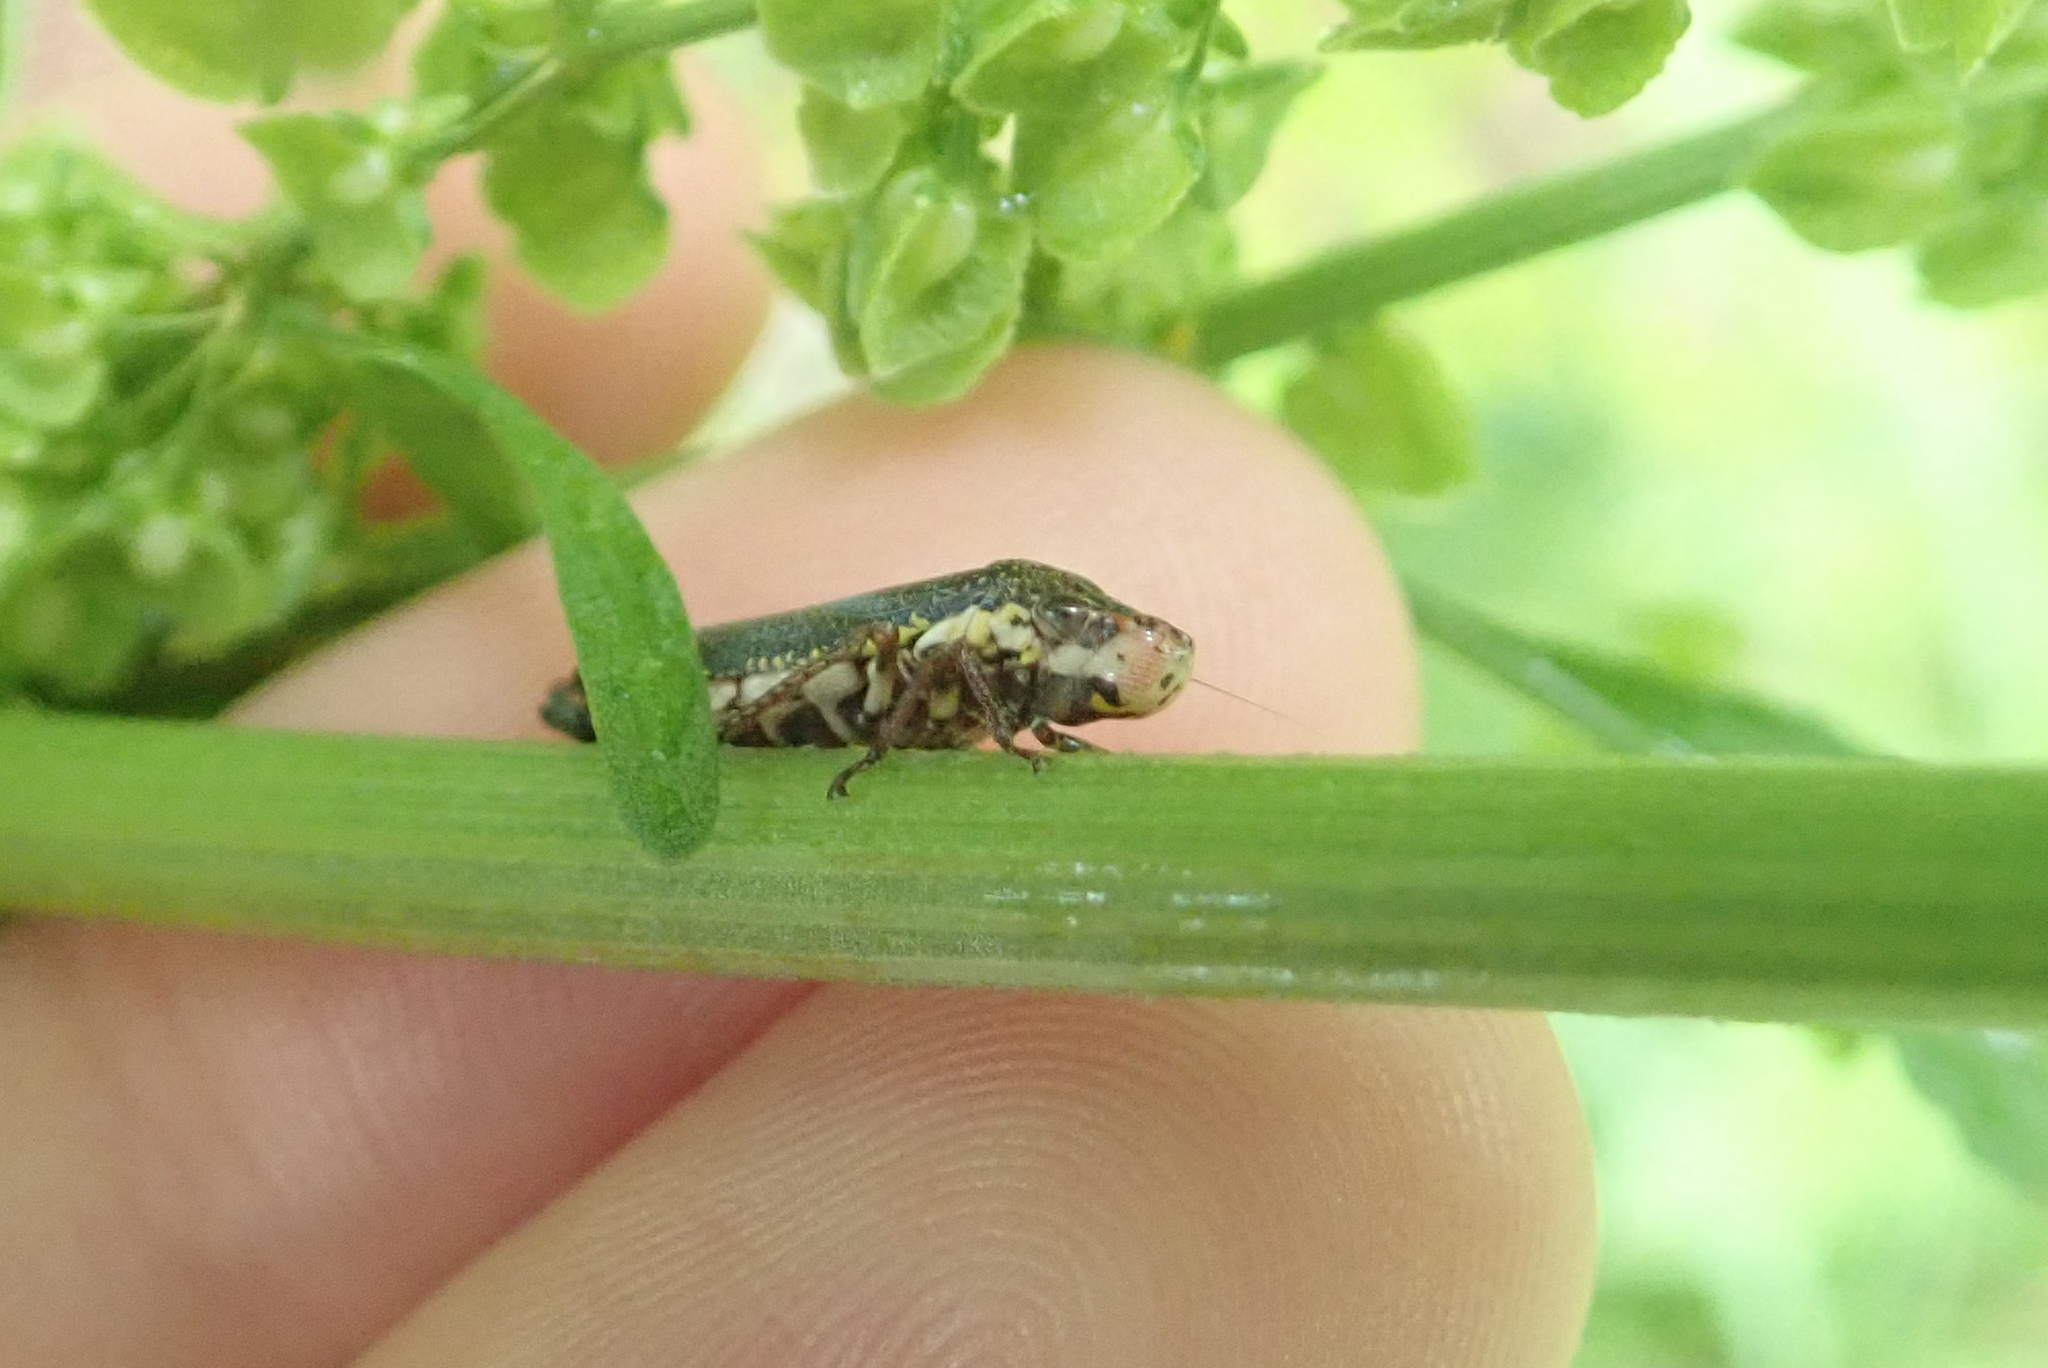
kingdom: Animalia
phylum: Arthropoda
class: Insecta
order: Hemiptera
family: Cicadellidae
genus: Paraulacizes
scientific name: Paraulacizes irrorata
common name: Speckled sharpshooter
